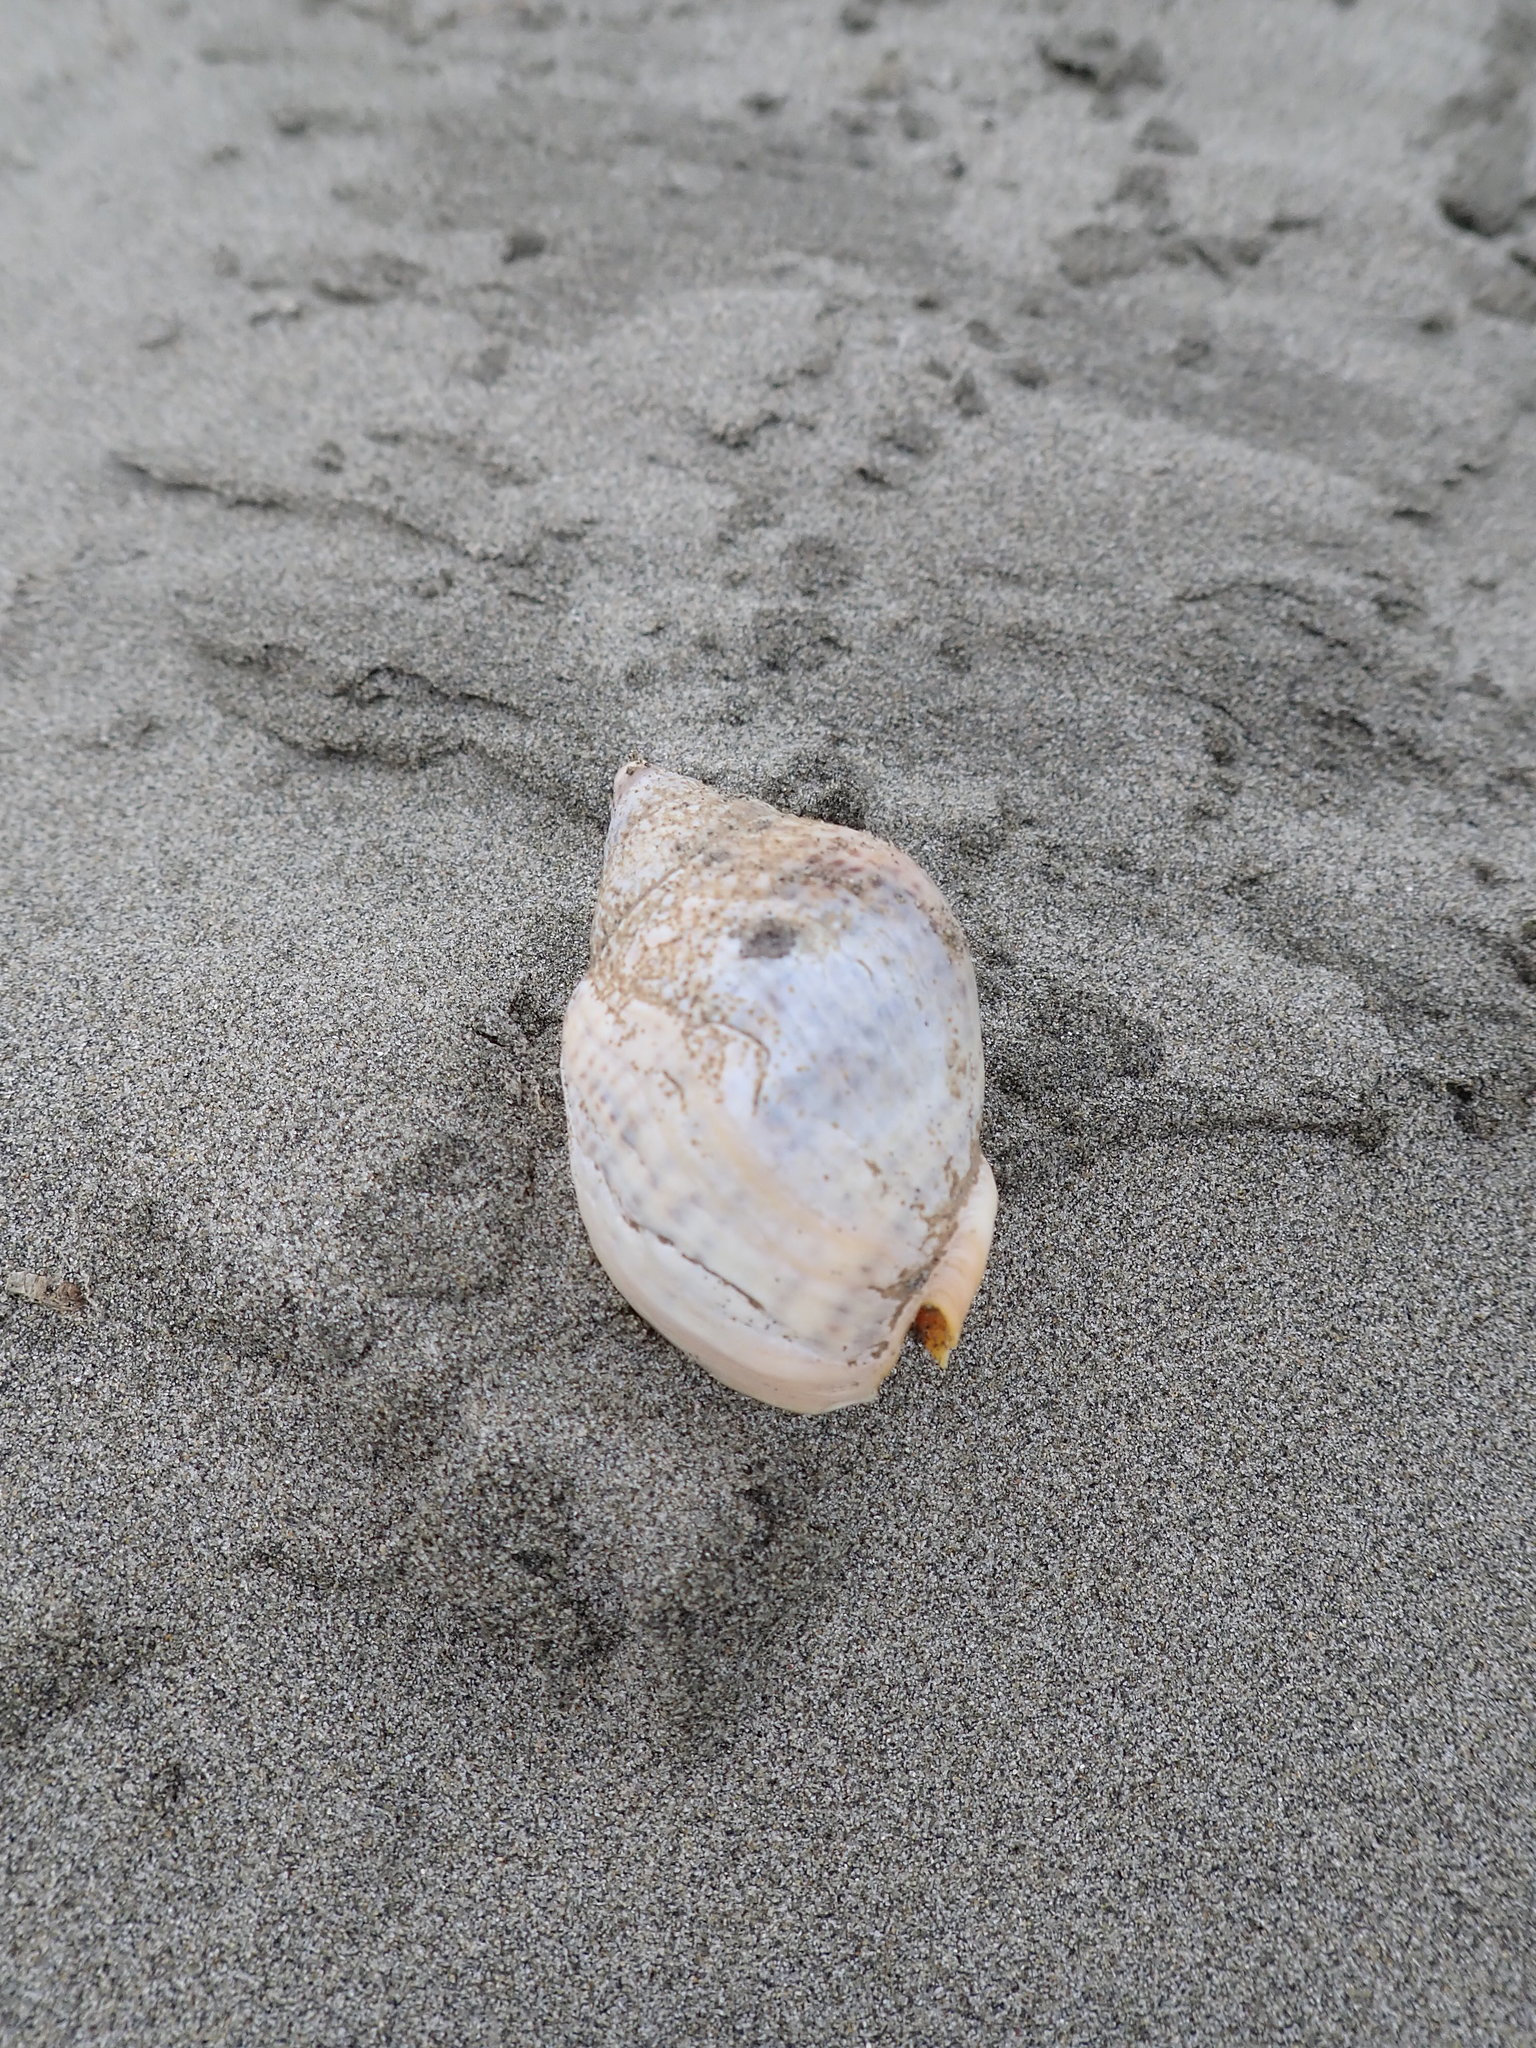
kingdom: Animalia
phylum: Mollusca
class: Gastropoda
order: Neogastropoda
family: Cominellidae
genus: Cominella
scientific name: Cominella adspersa
